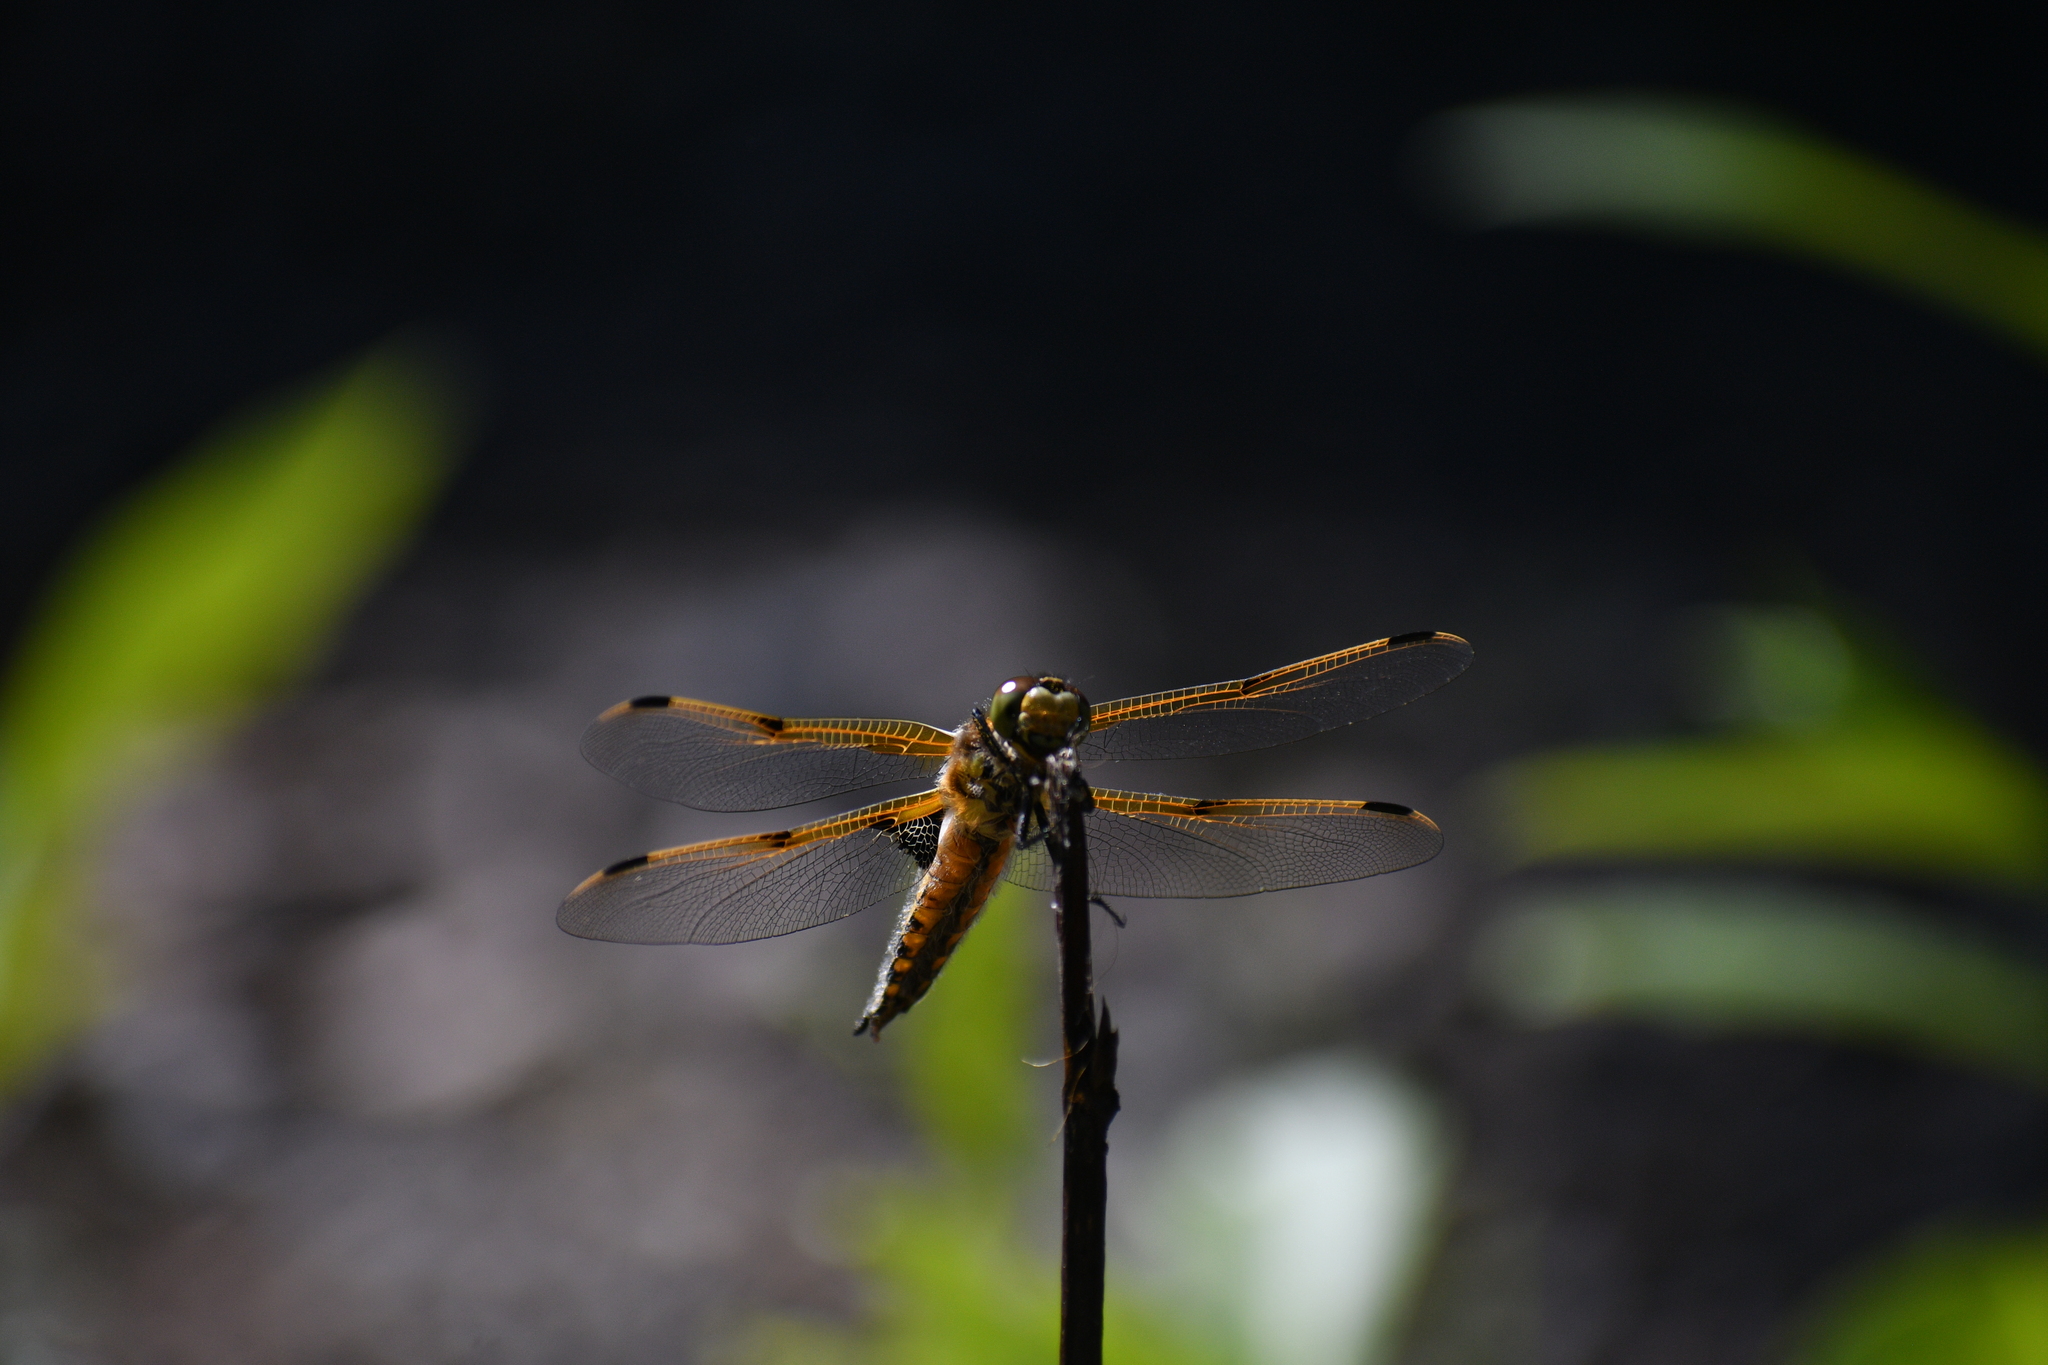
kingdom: Animalia
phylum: Arthropoda
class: Insecta
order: Odonata
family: Libellulidae
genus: Libellula
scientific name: Libellula quadrimaculata
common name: Four-spotted chaser
